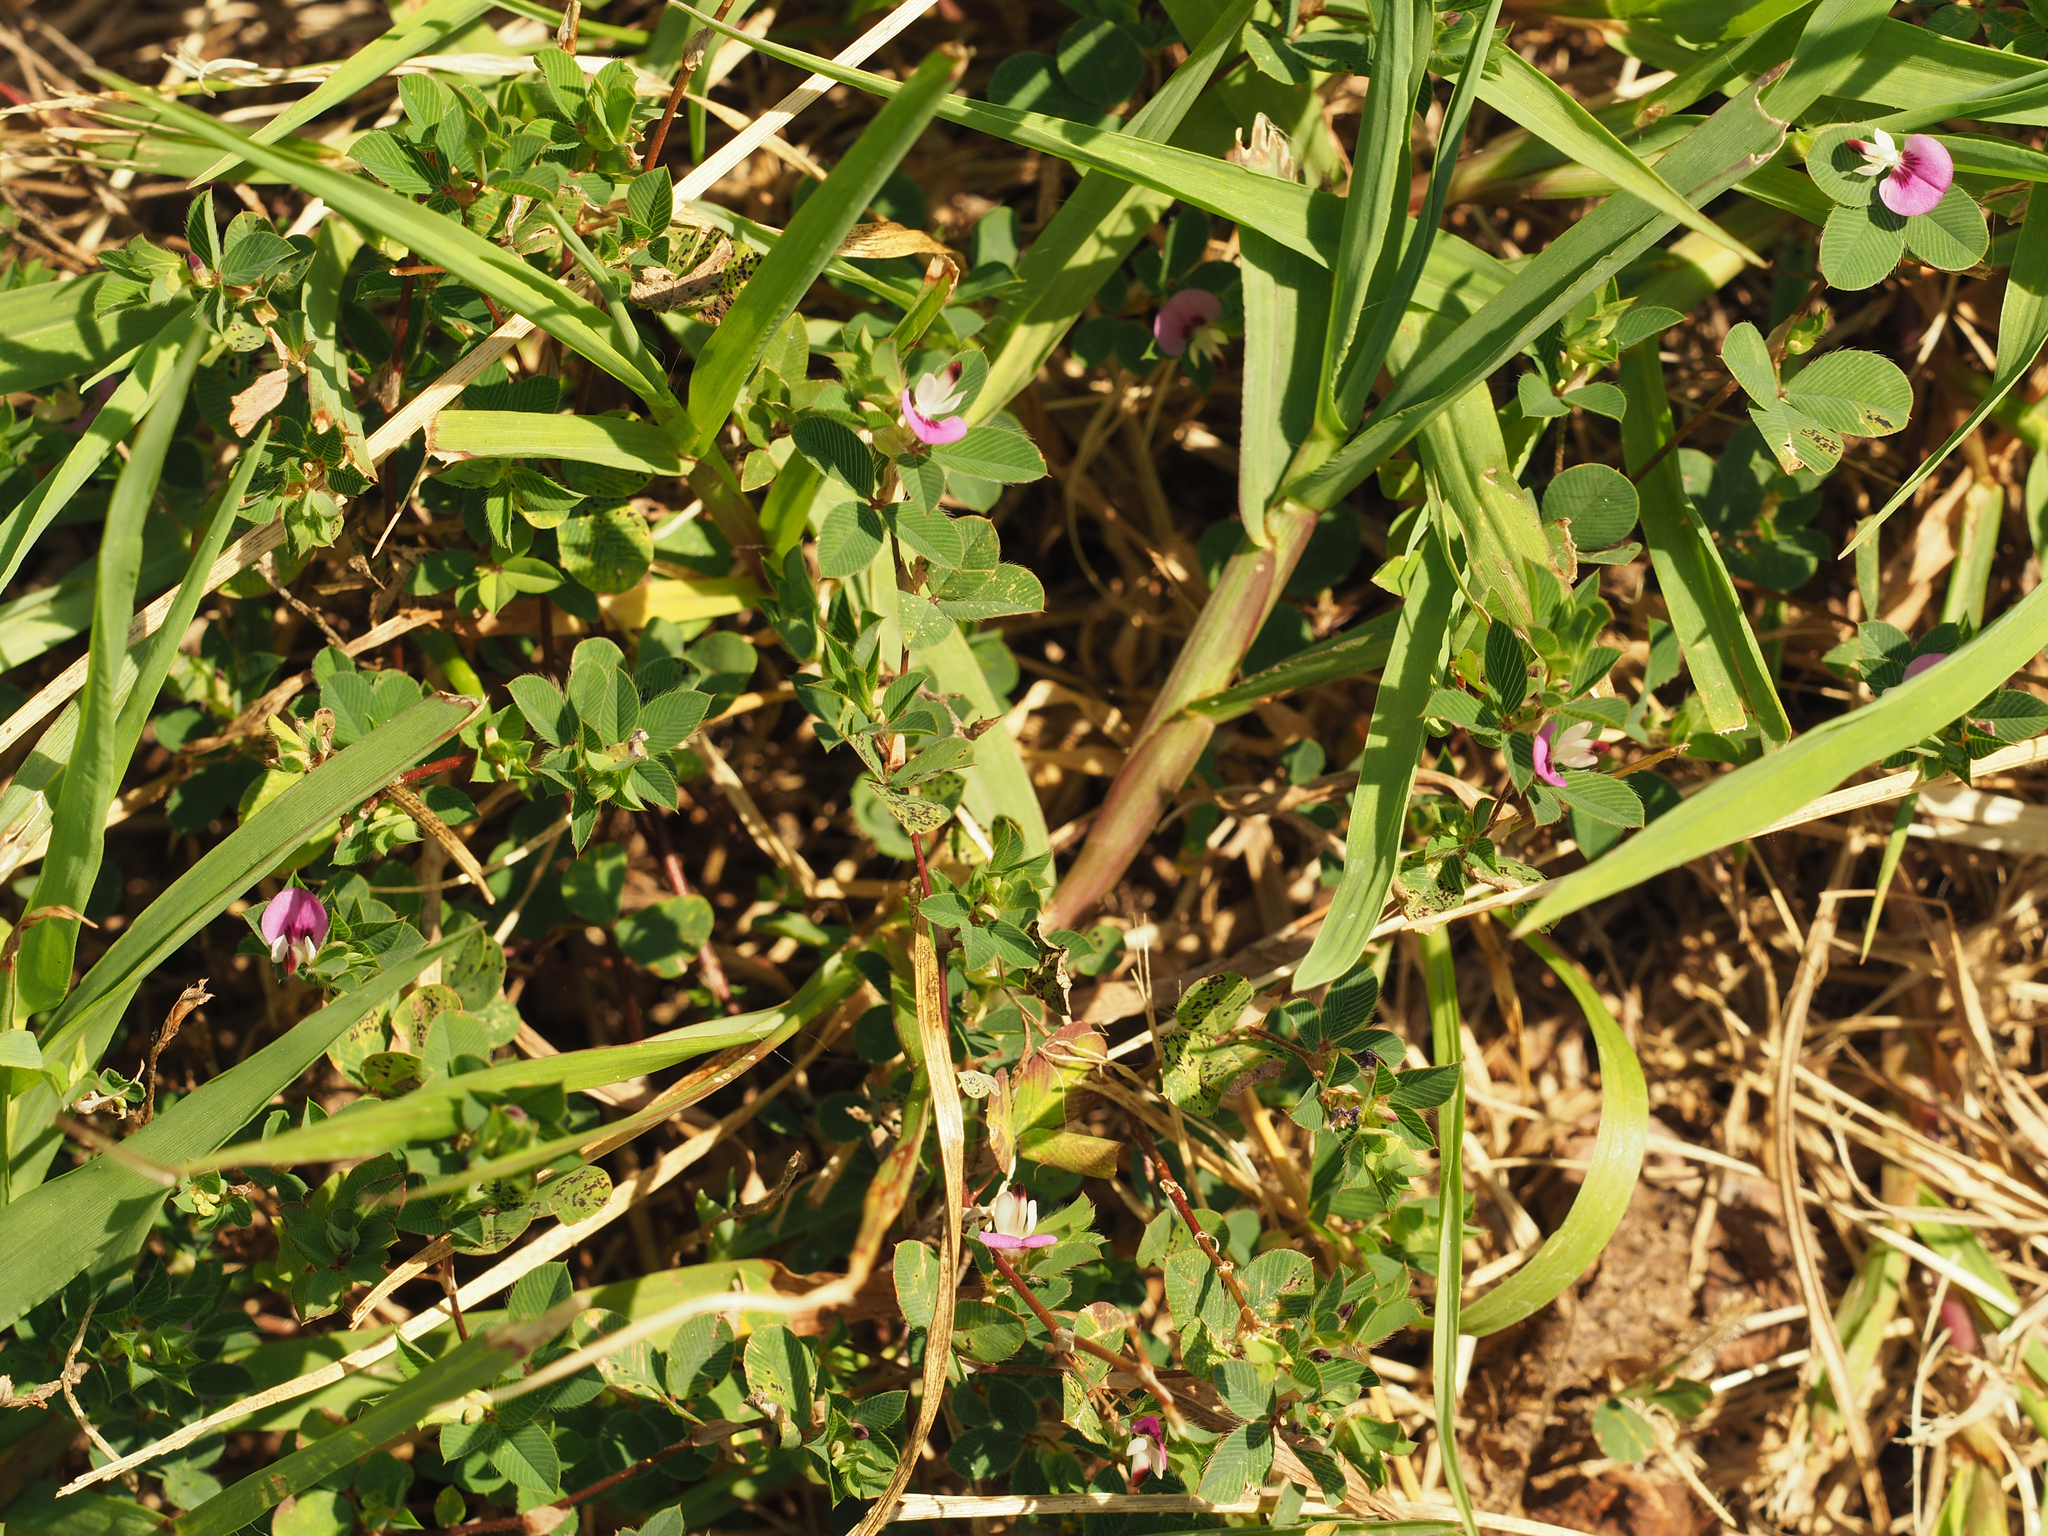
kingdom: Plantae
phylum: Tracheophyta
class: Magnoliopsida
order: Fabales
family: Fabaceae
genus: Kummerowia
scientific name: Kummerowia stipulacea
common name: Korean clover
